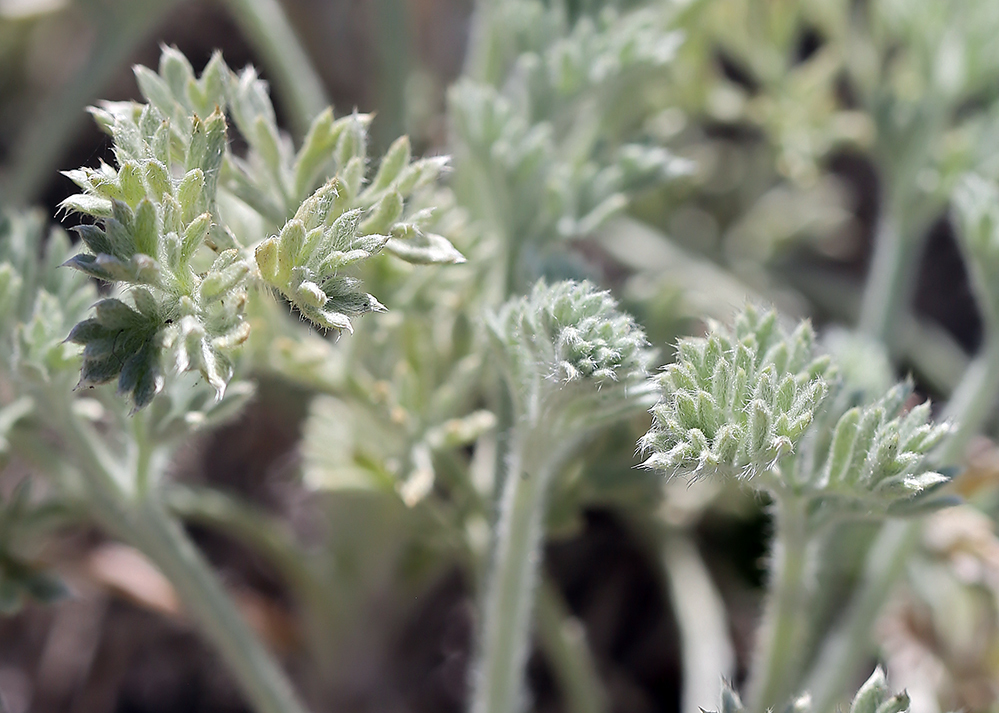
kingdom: Plantae
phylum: Tracheophyta
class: Magnoliopsida
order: Asterales
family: Asteraceae
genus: Artemisia
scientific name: Artemisia pycnocephala
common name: Coastal sagewort
